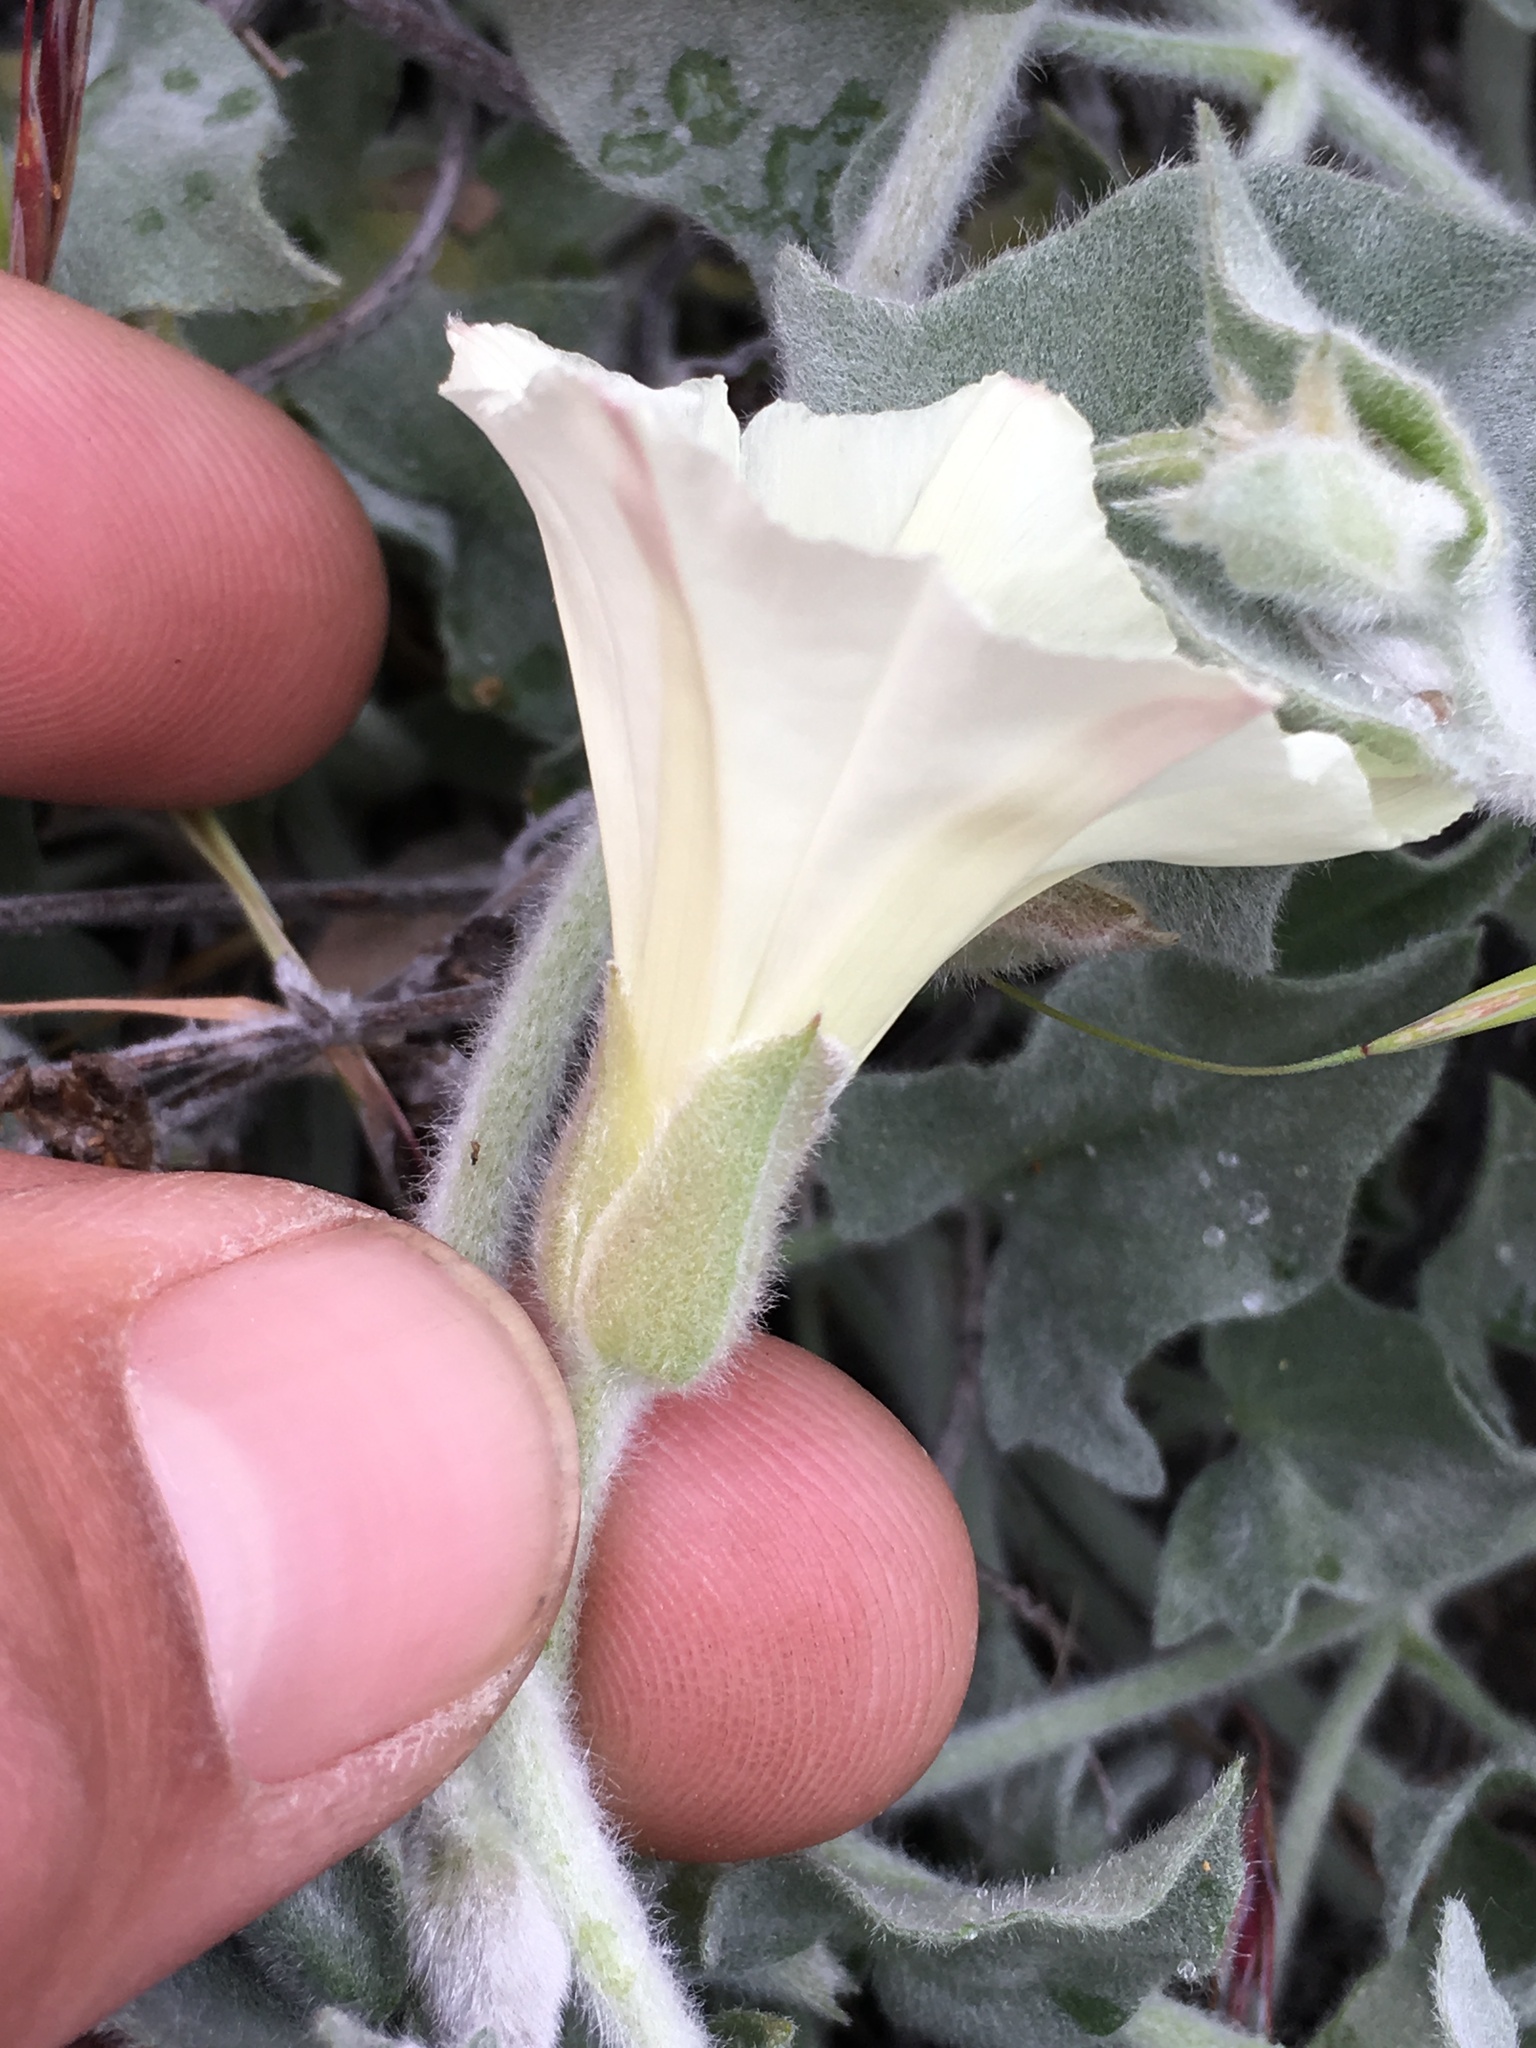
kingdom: Plantae
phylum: Tracheophyta
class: Magnoliopsida
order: Solanales
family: Convolvulaceae
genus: Calystegia
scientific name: Calystegia malacophylla
